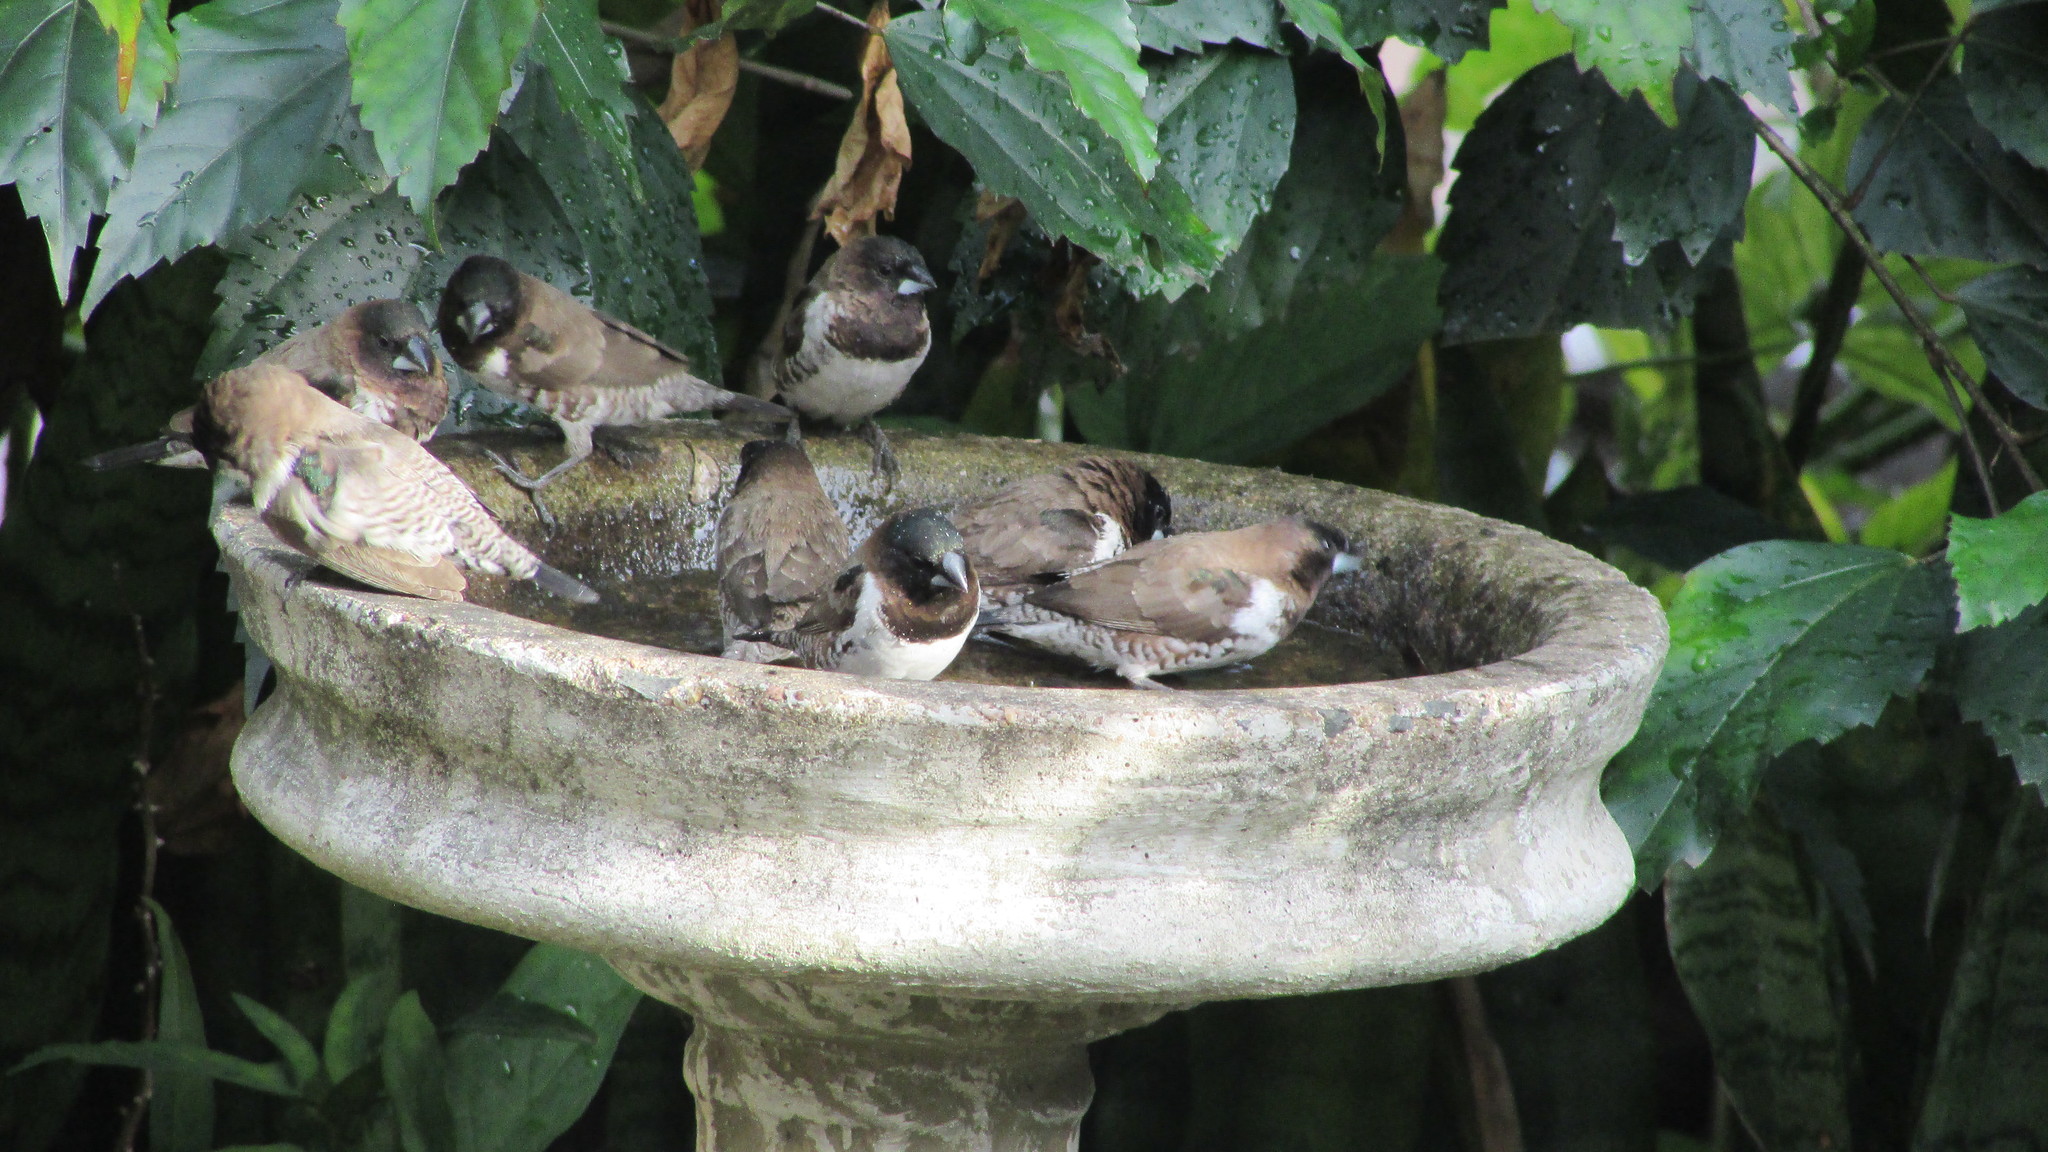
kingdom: Animalia
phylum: Chordata
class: Aves
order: Passeriformes
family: Estrildidae
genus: Lonchura
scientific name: Lonchura cucullata
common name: Bronze mannikin
